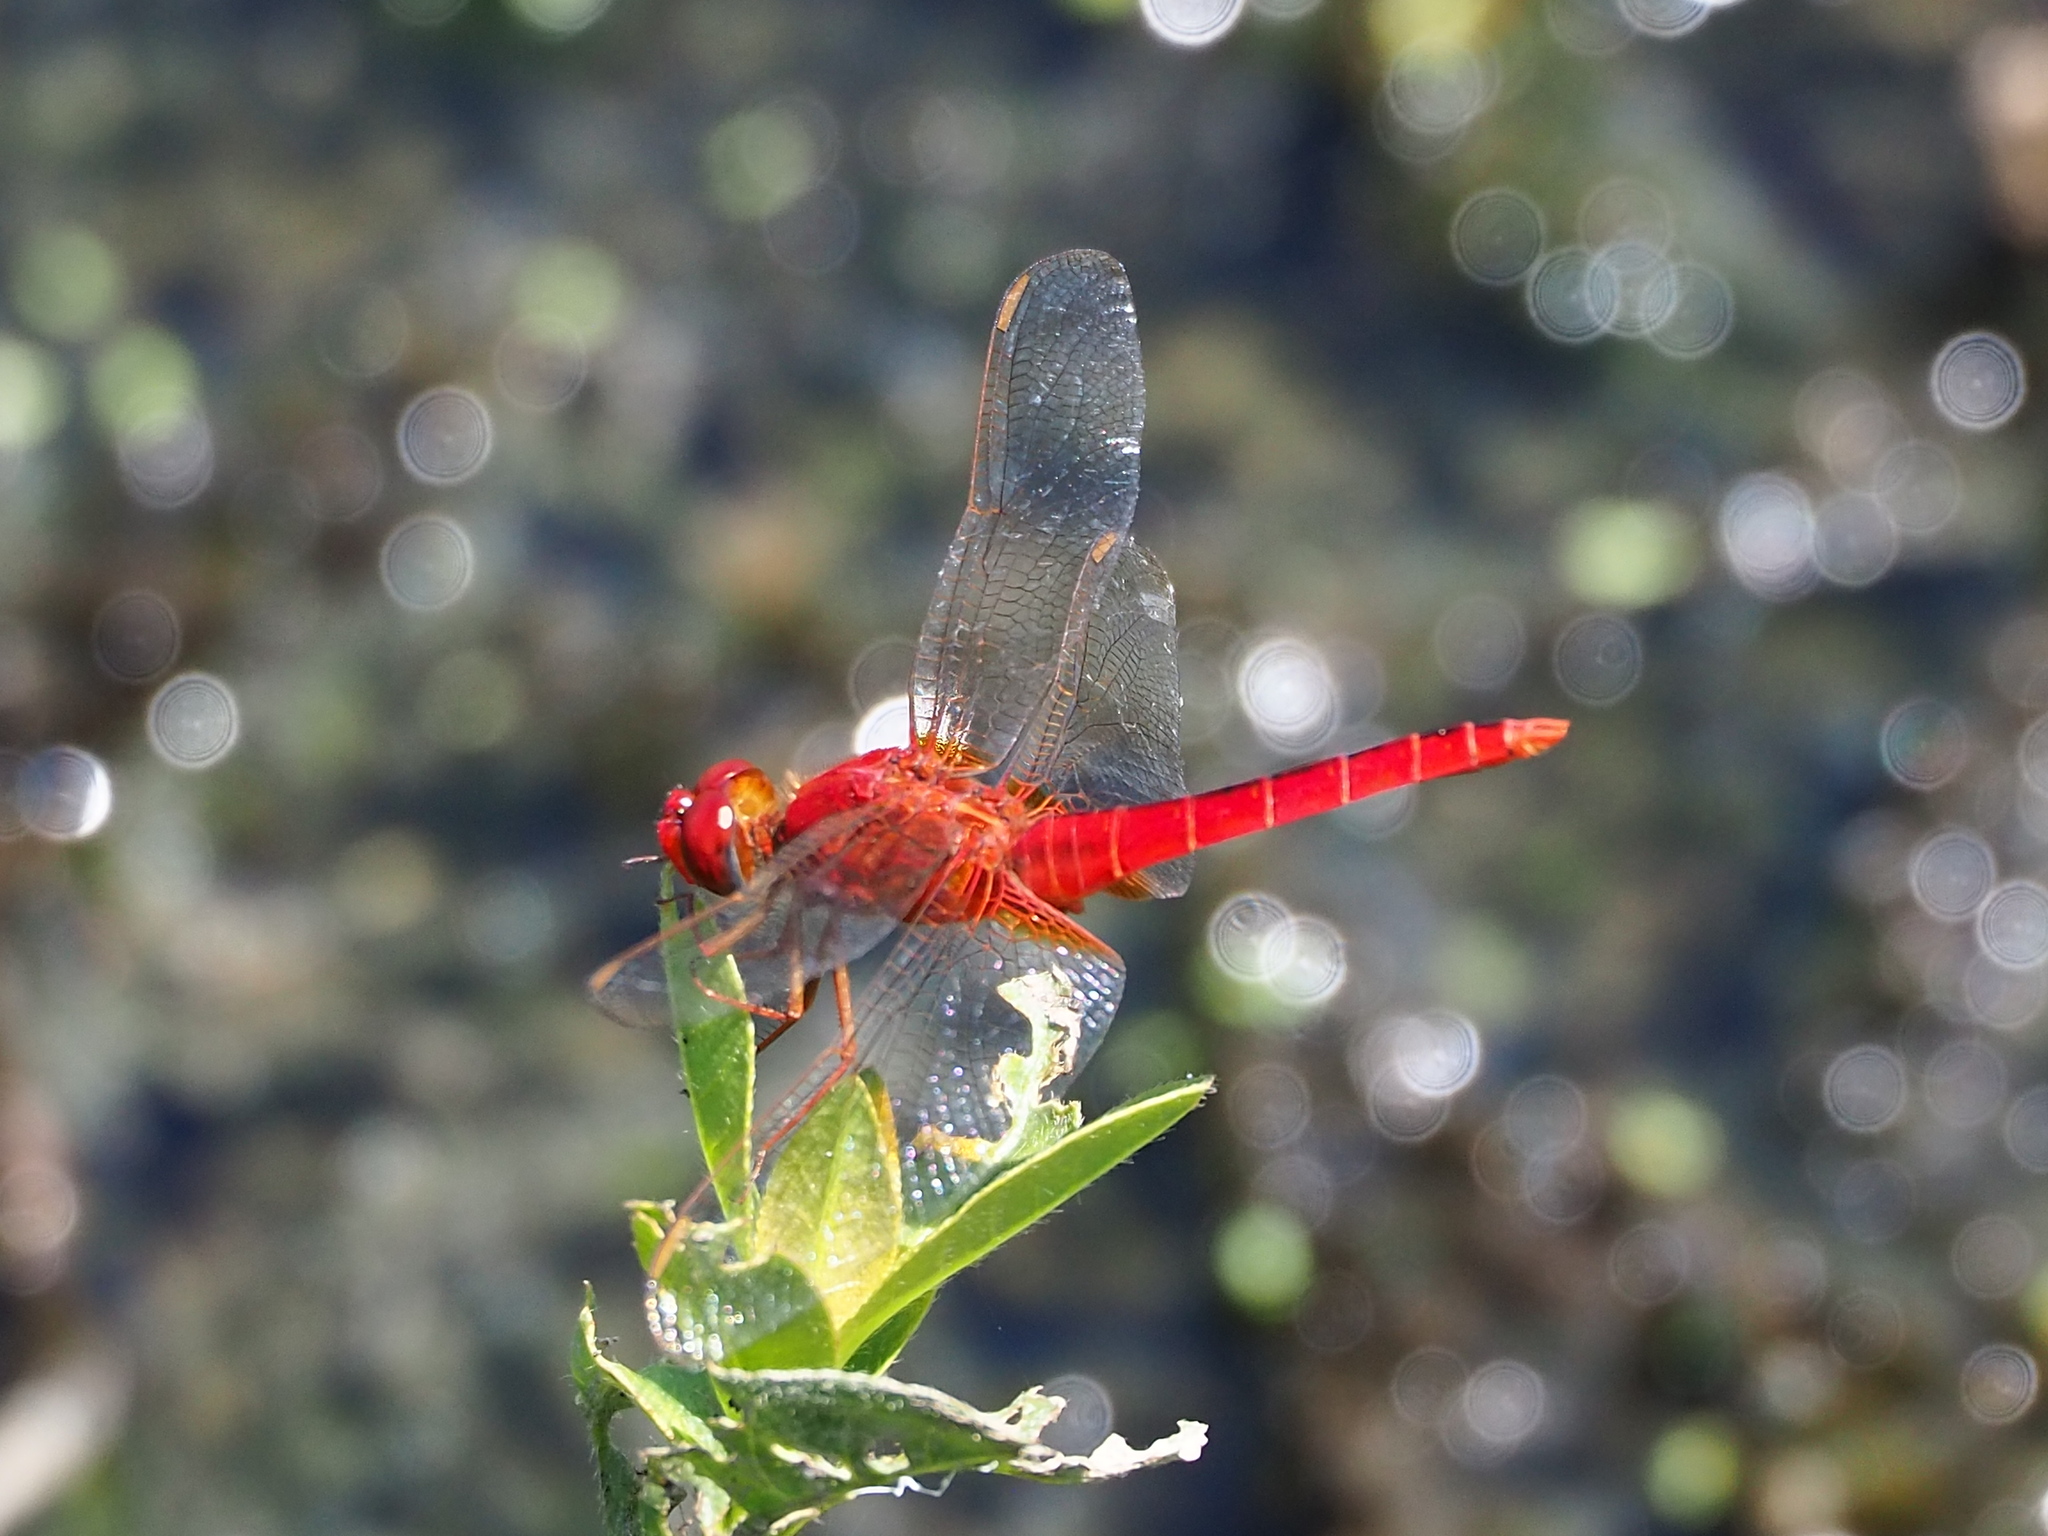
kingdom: Animalia
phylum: Arthropoda
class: Insecta
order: Odonata
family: Libellulidae
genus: Crocothemis
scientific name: Crocothemis servilia
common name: Scarlet skimmer
